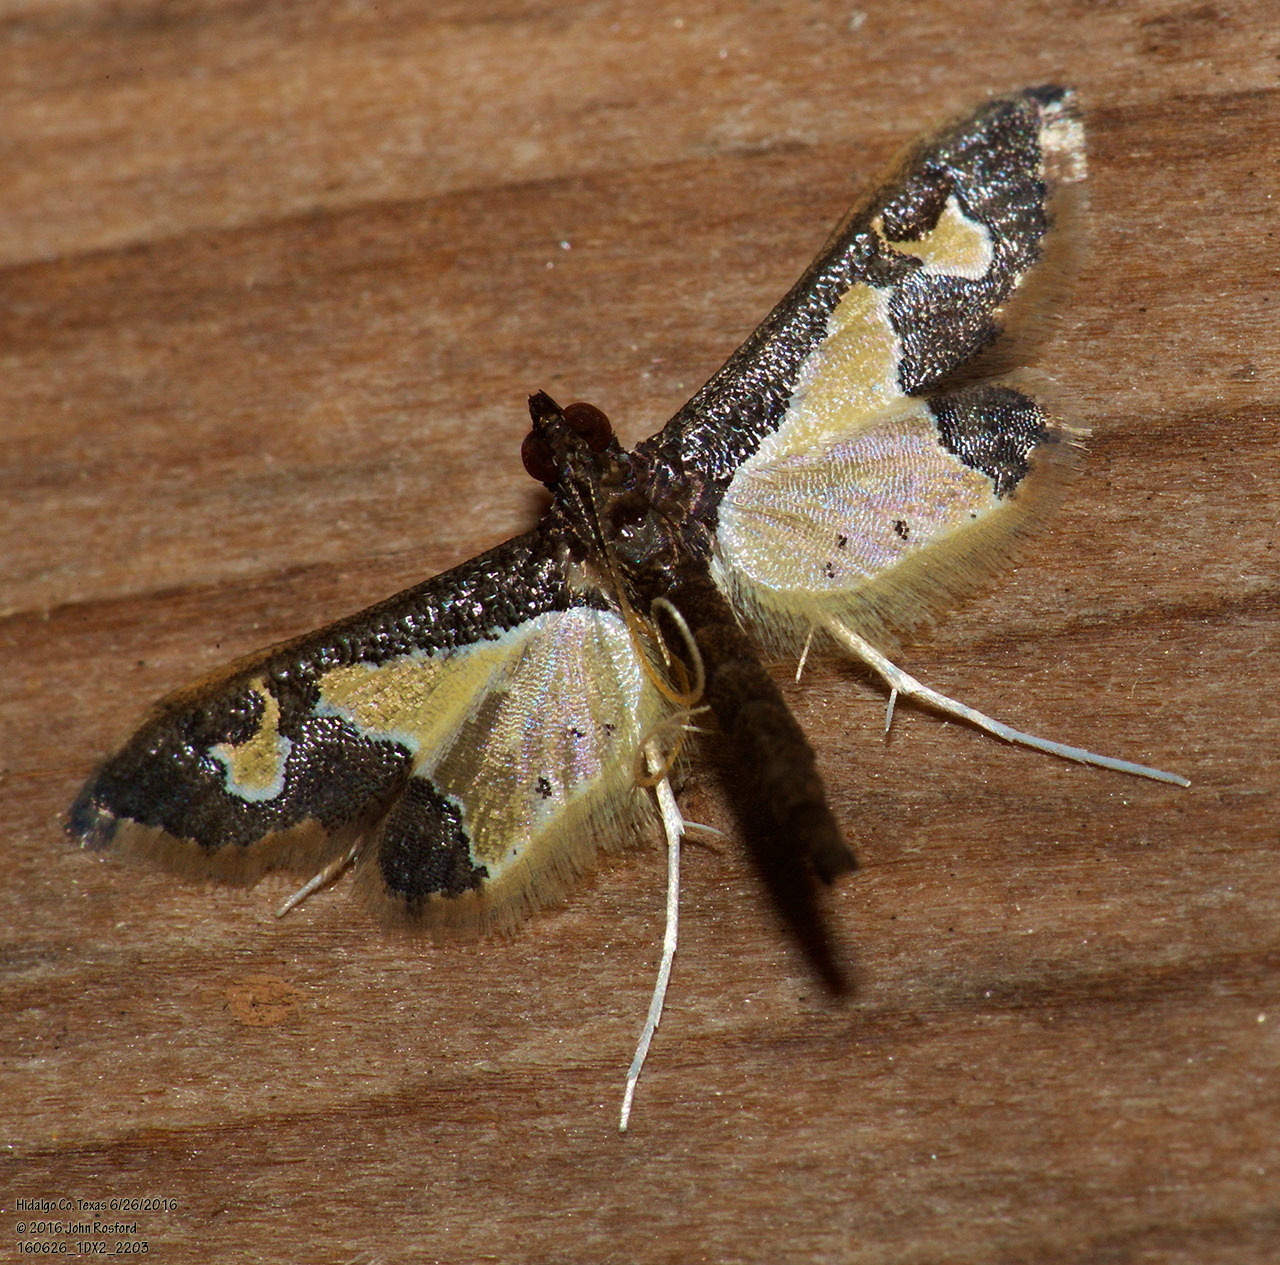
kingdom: Animalia
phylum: Arthropoda
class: Insecta
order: Lepidoptera
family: Crambidae
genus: Gonocausta
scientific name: Gonocausta sabinalis
